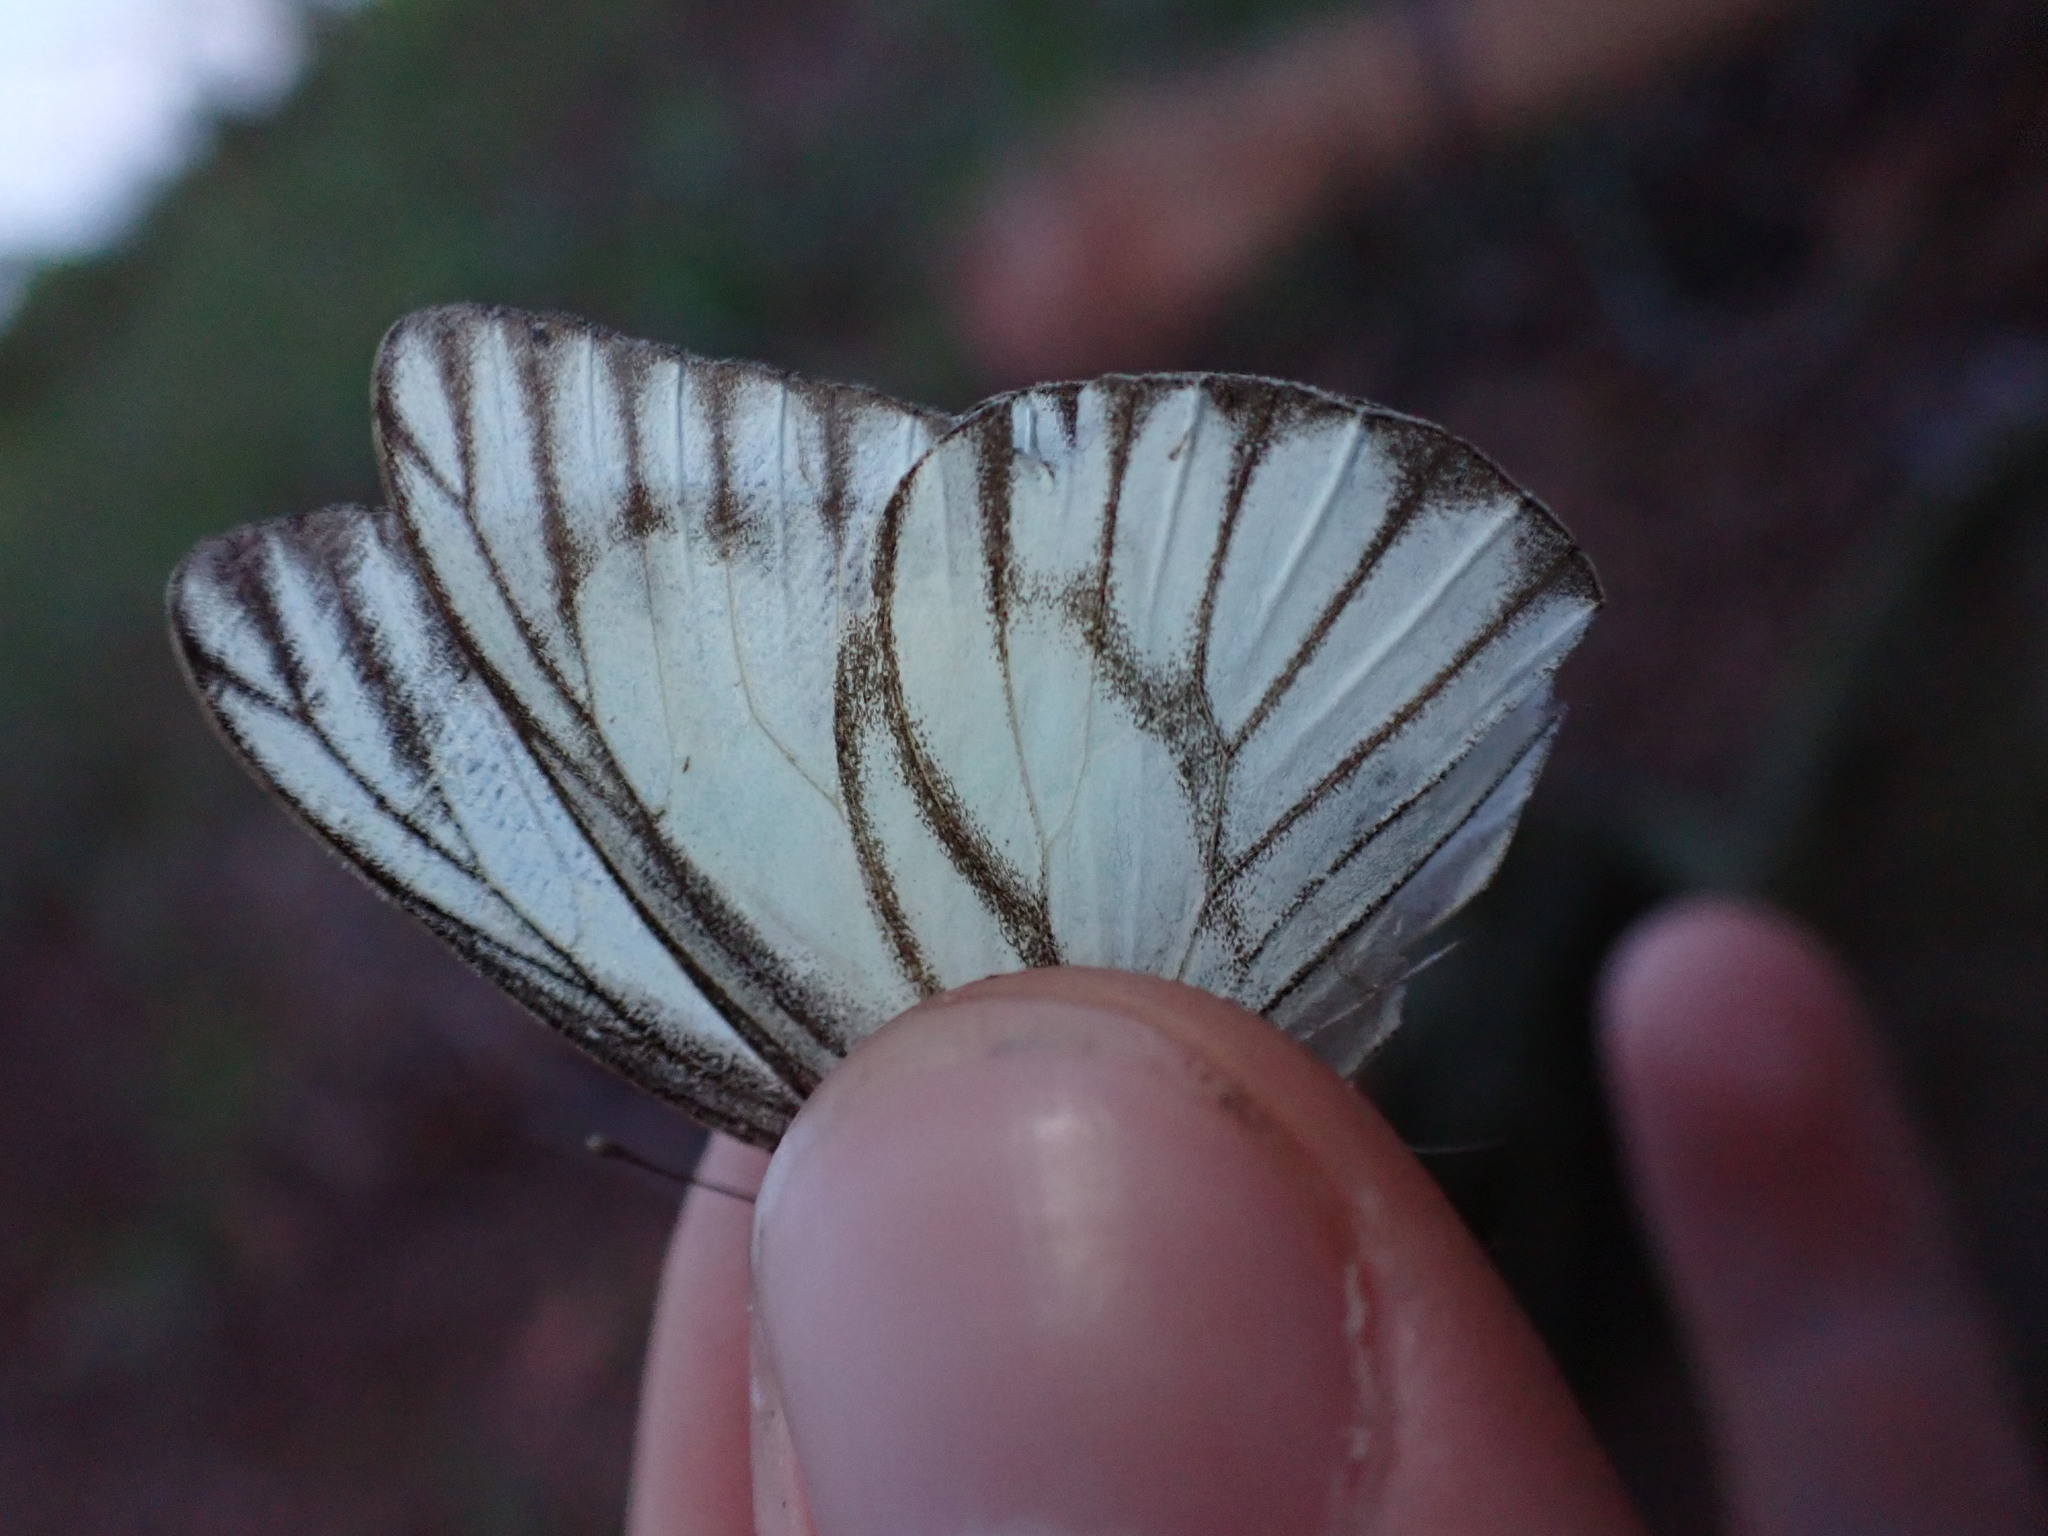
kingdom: Animalia
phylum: Arthropoda
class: Insecta
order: Lepidoptera
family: Pieridae
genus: Appias
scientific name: Appias libythea
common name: Striped albatross
